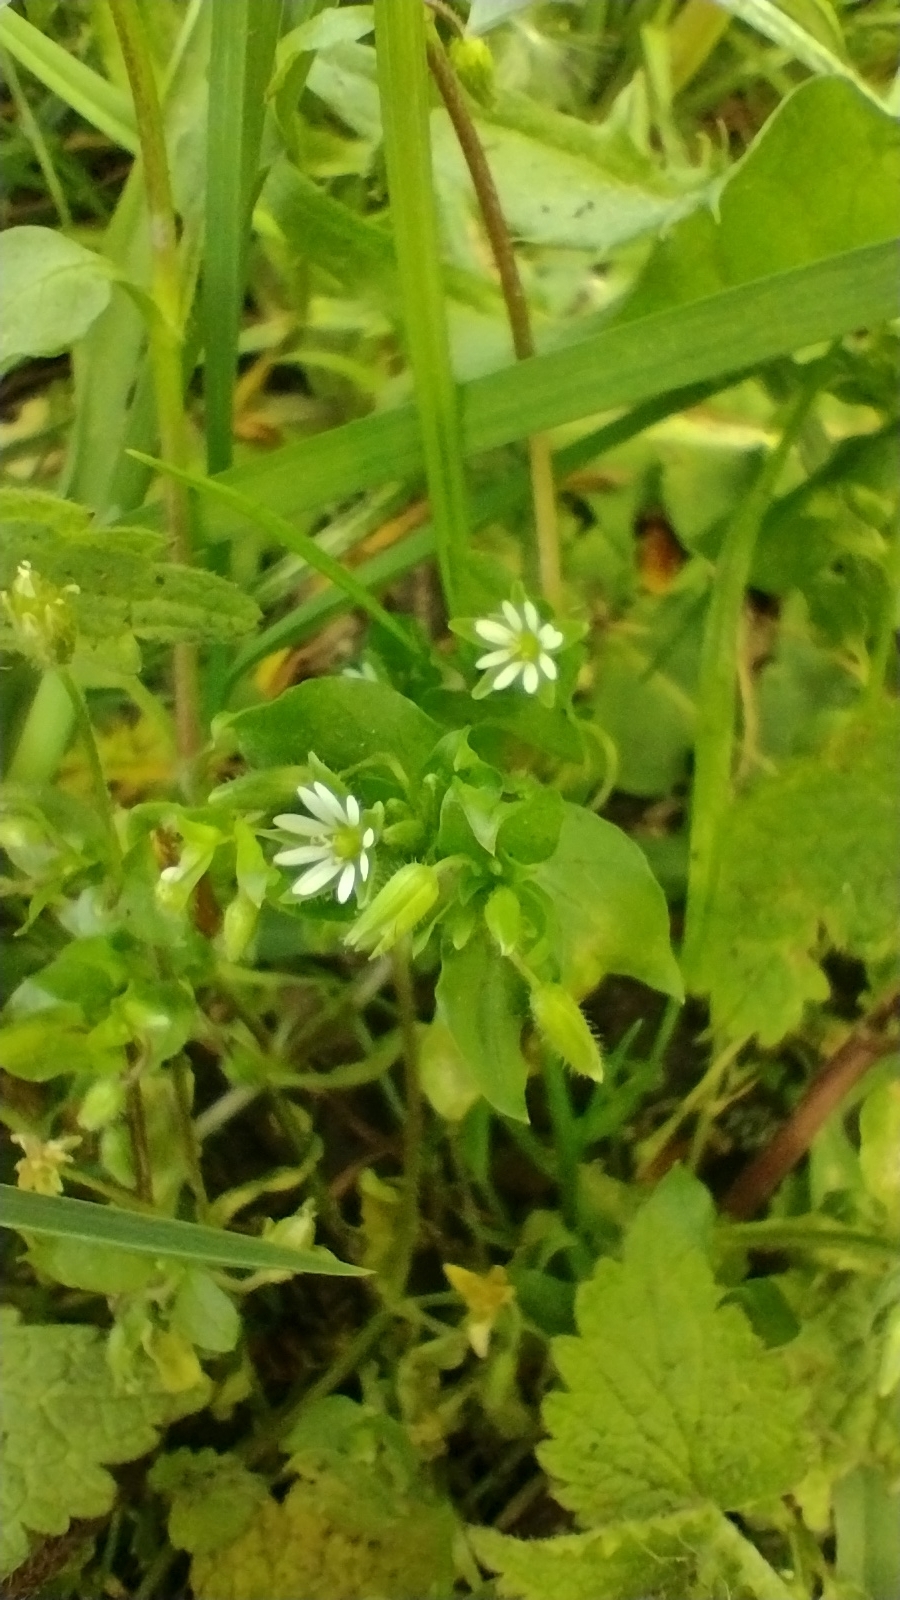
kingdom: Plantae
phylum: Tracheophyta
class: Magnoliopsida
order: Caryophyllales
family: Caryophyllaceae
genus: Stellaria
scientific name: Stellaria media
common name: Common chickweed
